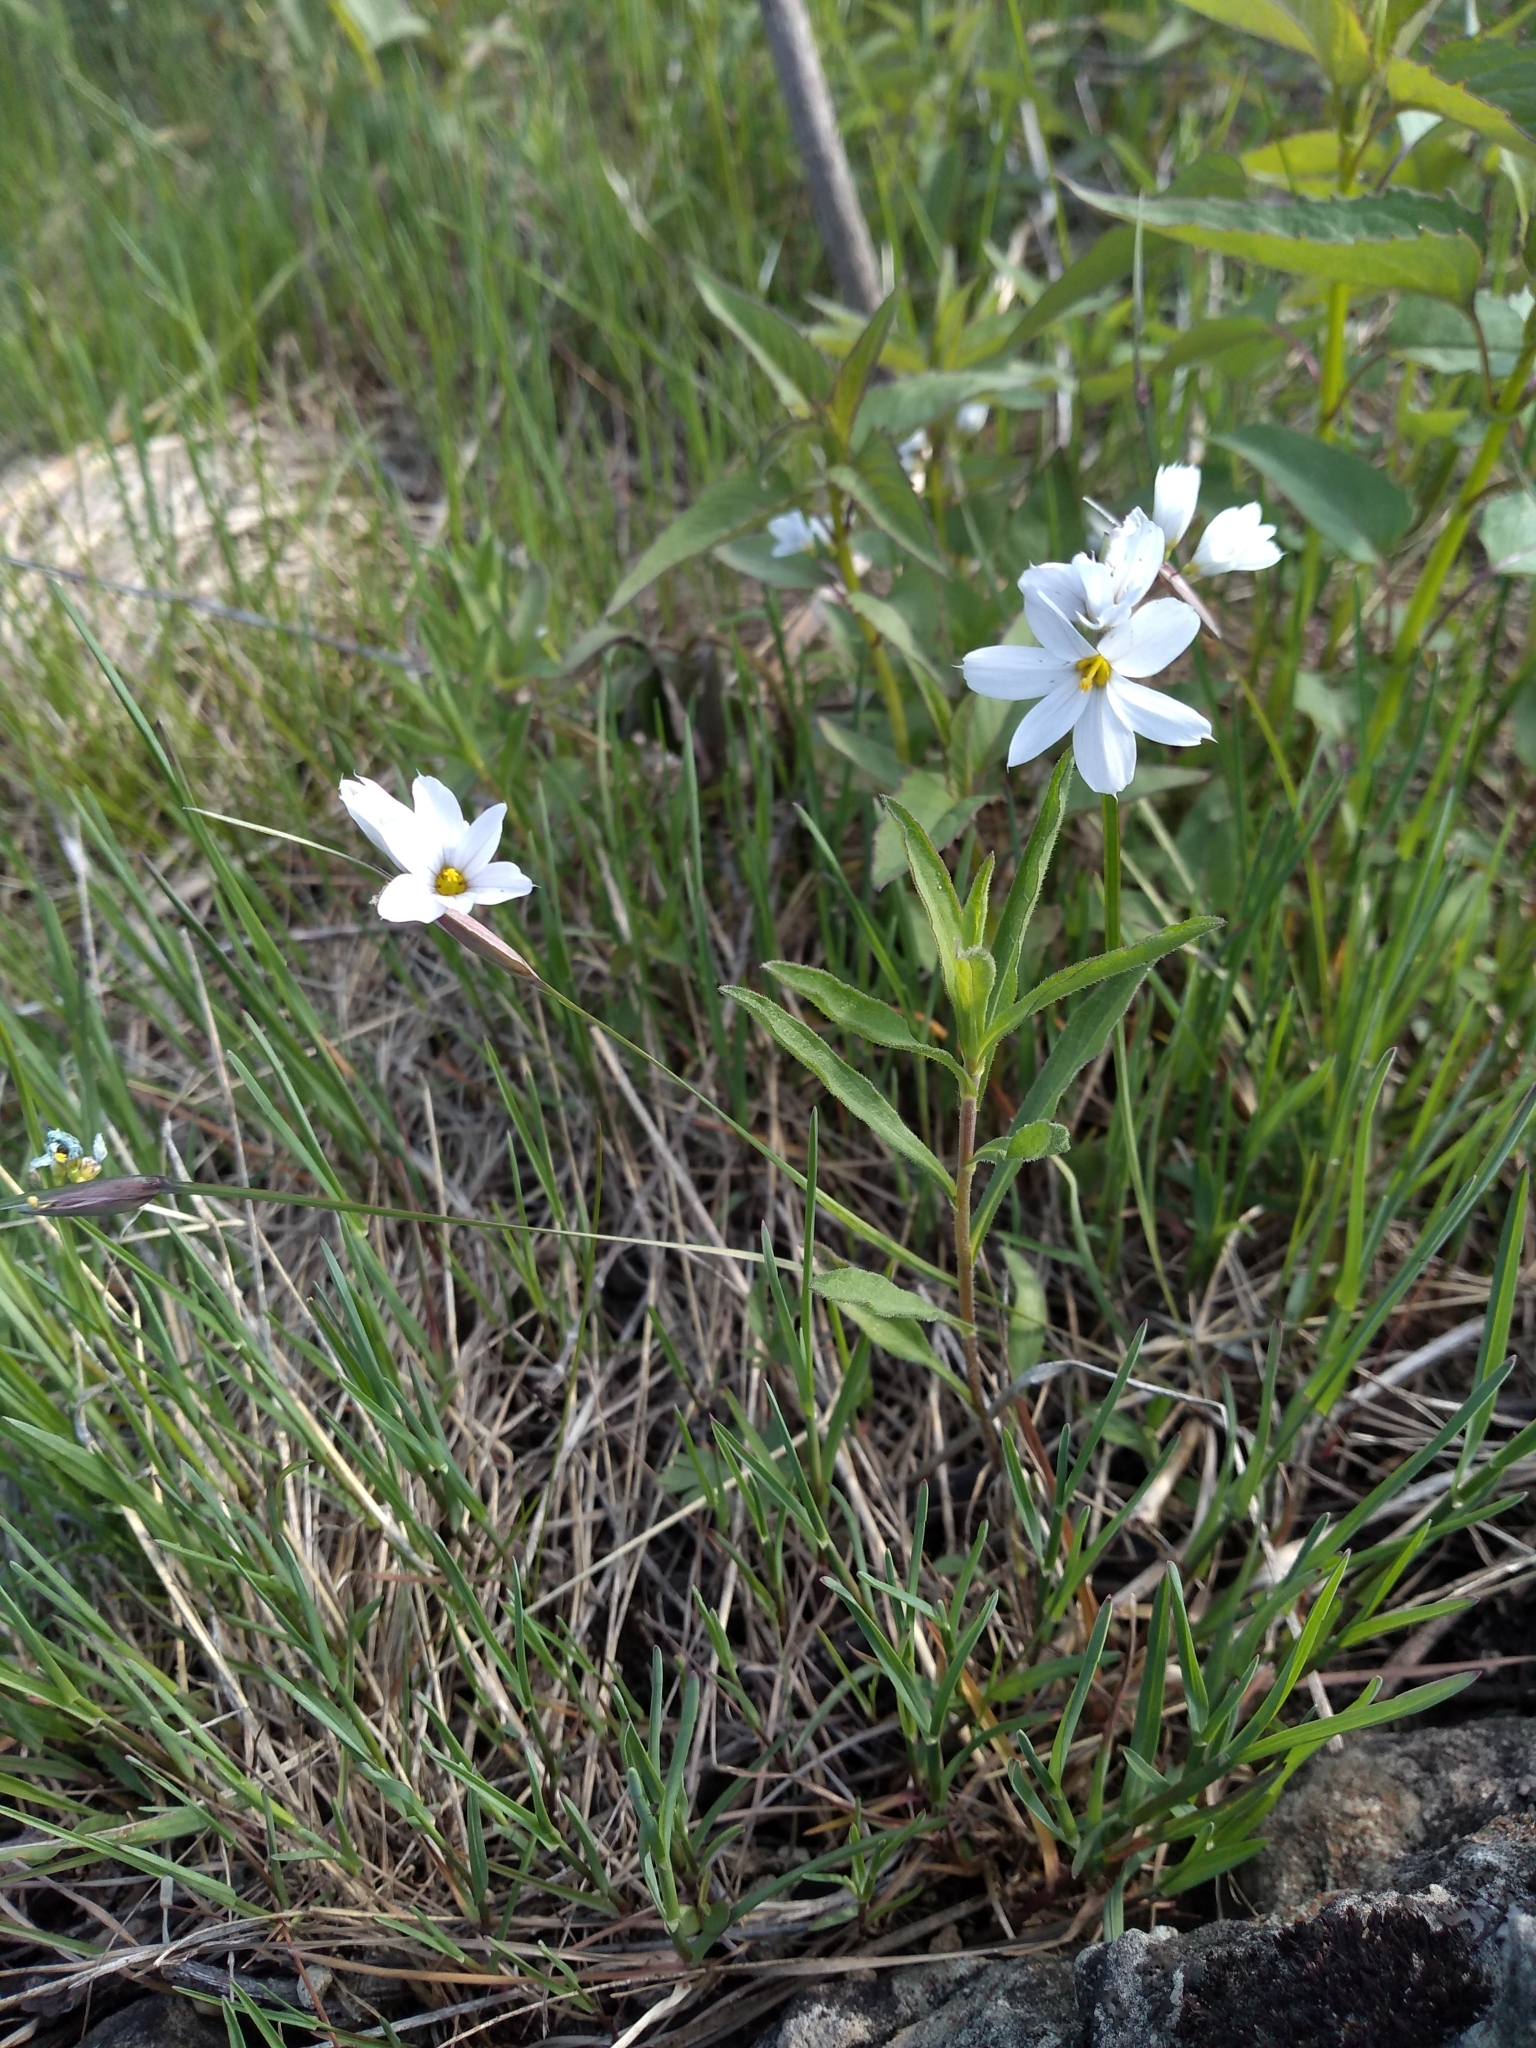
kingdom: Plantae
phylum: Tracheophyta
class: Liliopsida
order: Asparagales
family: Iridaceae
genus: Sisyrinchium
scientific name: Sisyrinchium albidum
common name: Pale blue-eyed-grass
